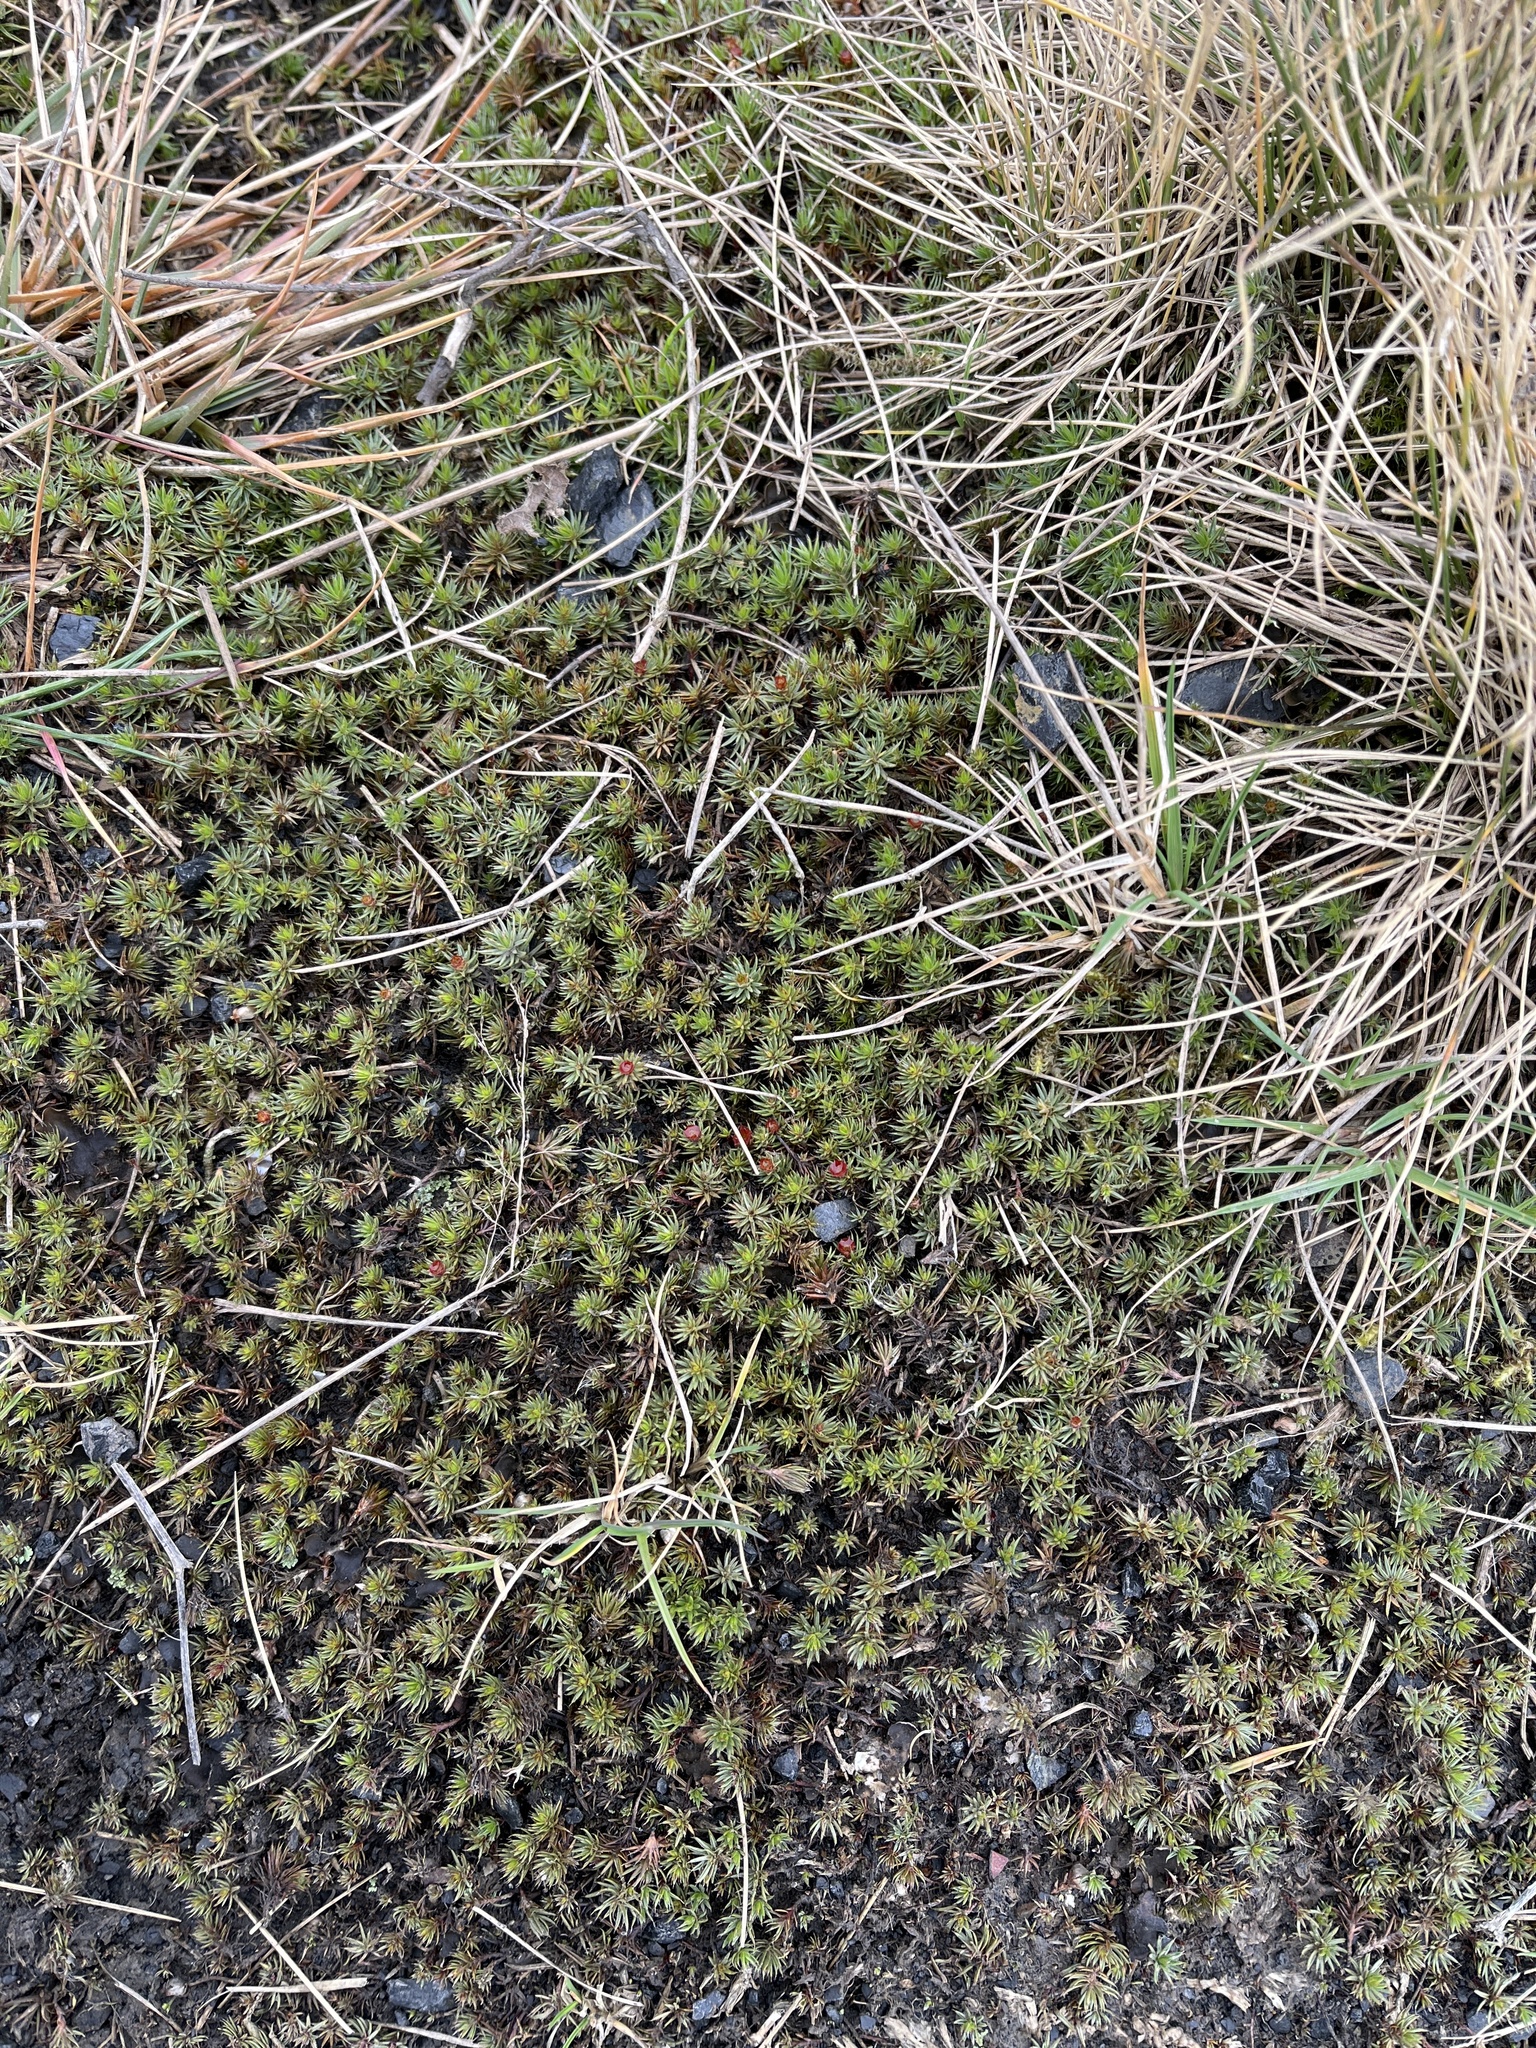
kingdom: Plantae
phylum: Bryophyta
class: Polytrichopsida
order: Polytrichales
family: Polytrichaceae
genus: Polytrichum
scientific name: Polytrichum piliferum
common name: Bristly haircap
